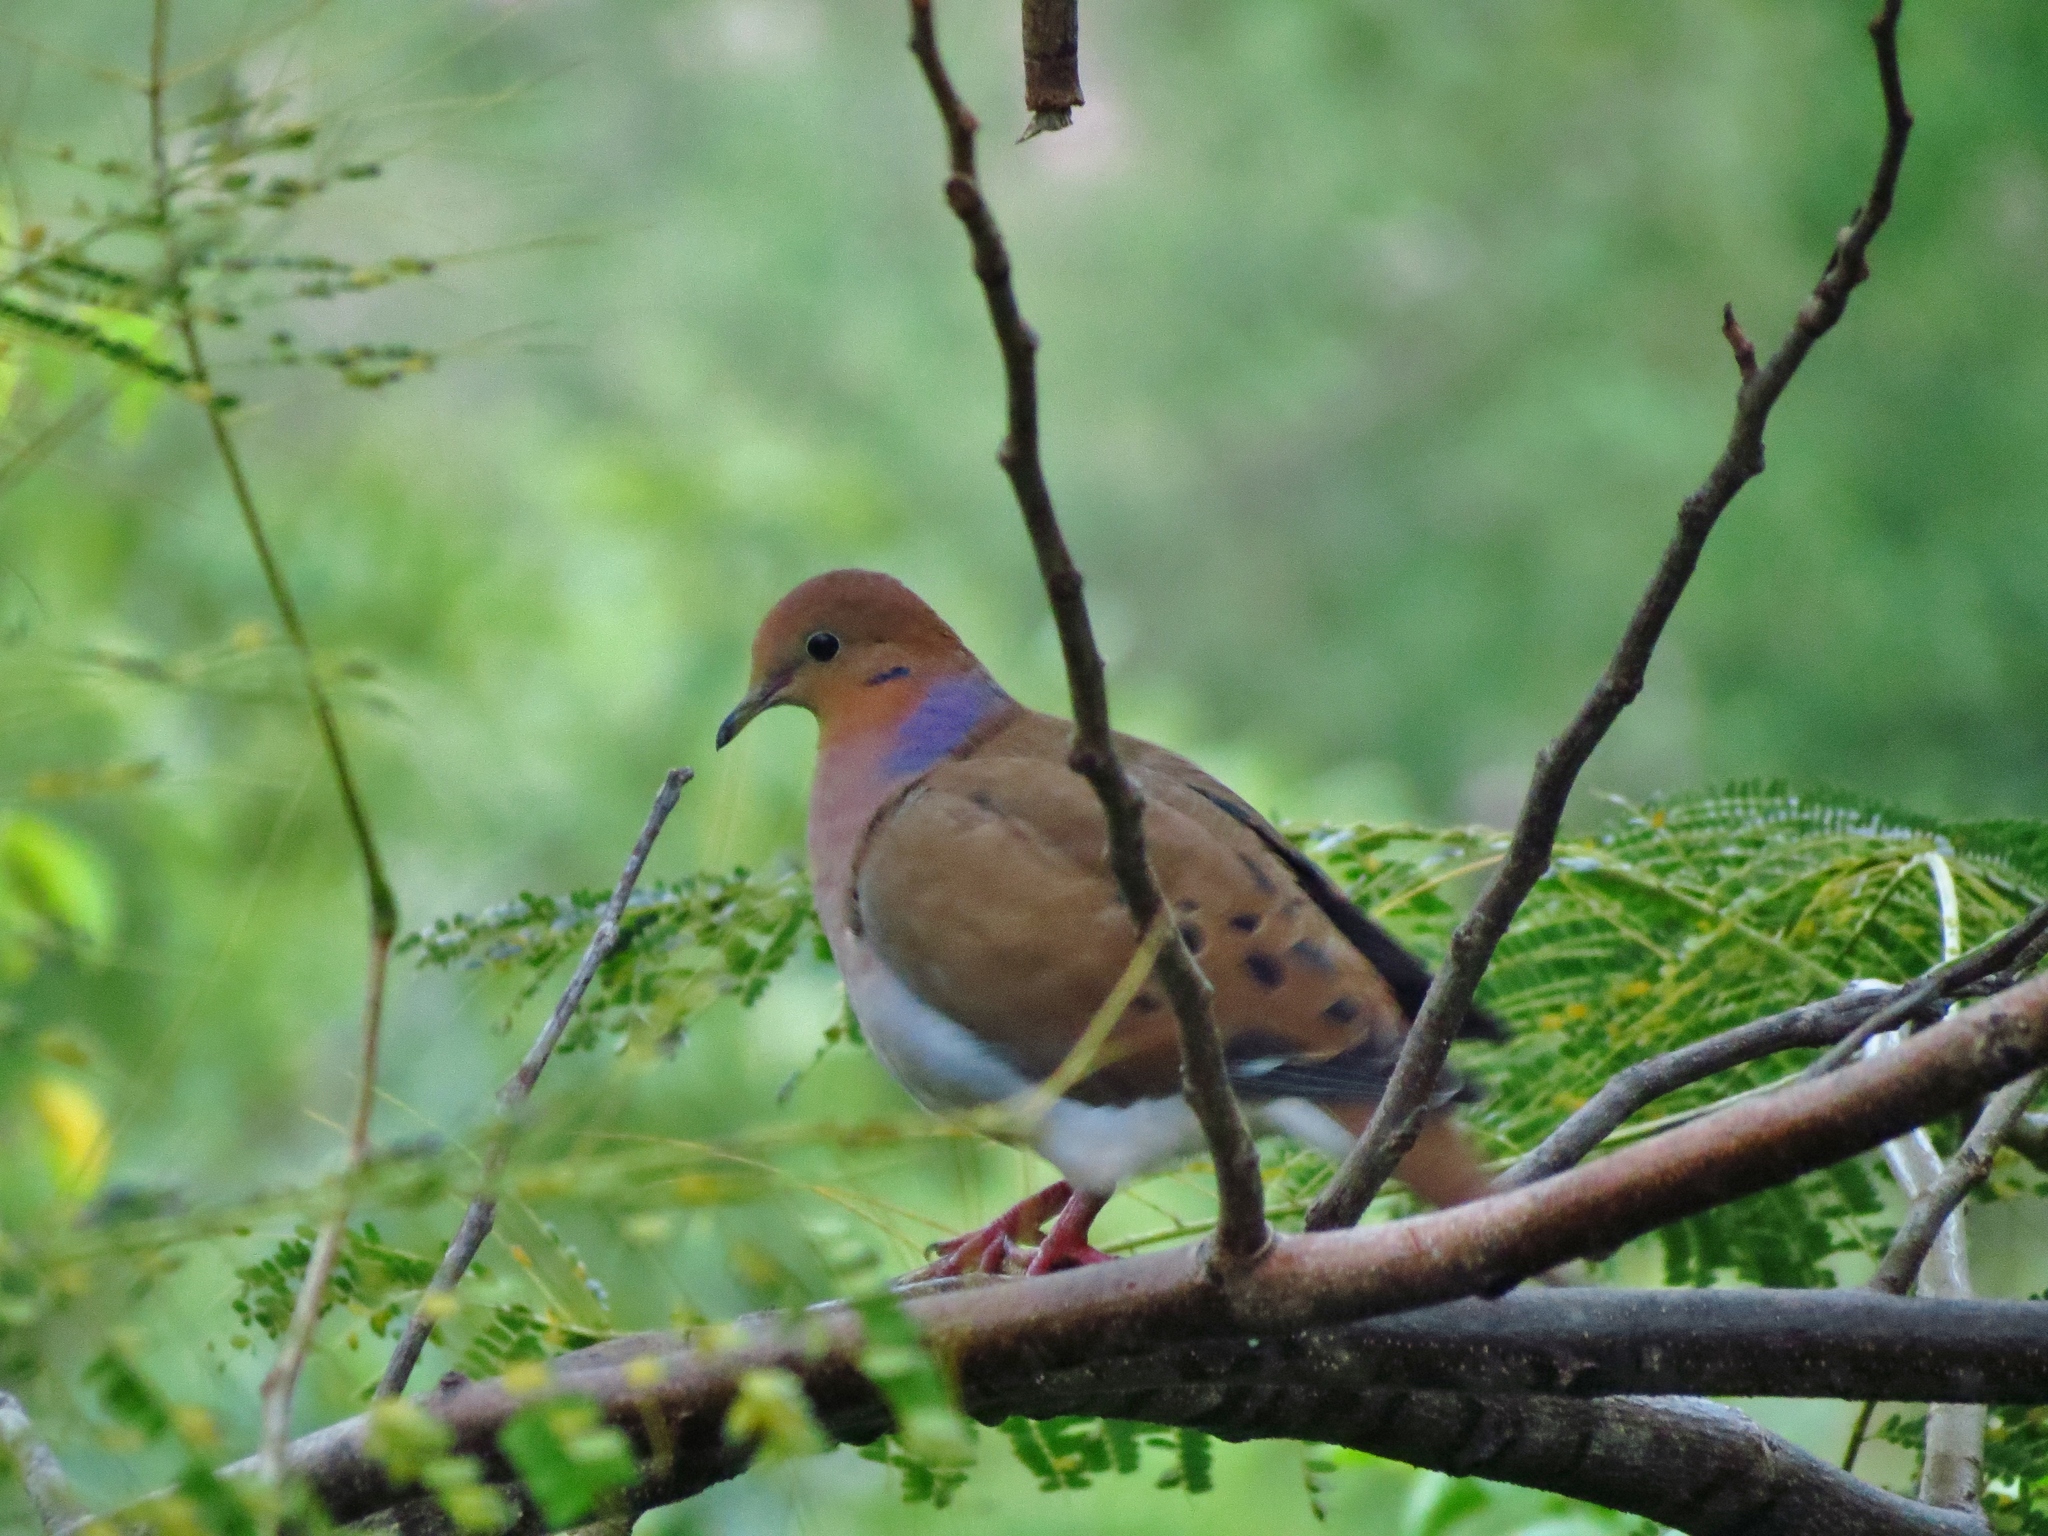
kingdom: Animalia
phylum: Chordata
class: Aves
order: Columbiformes
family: Columbidae
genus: Zenaida
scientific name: Zenaida aurita
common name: Zenaida dove
